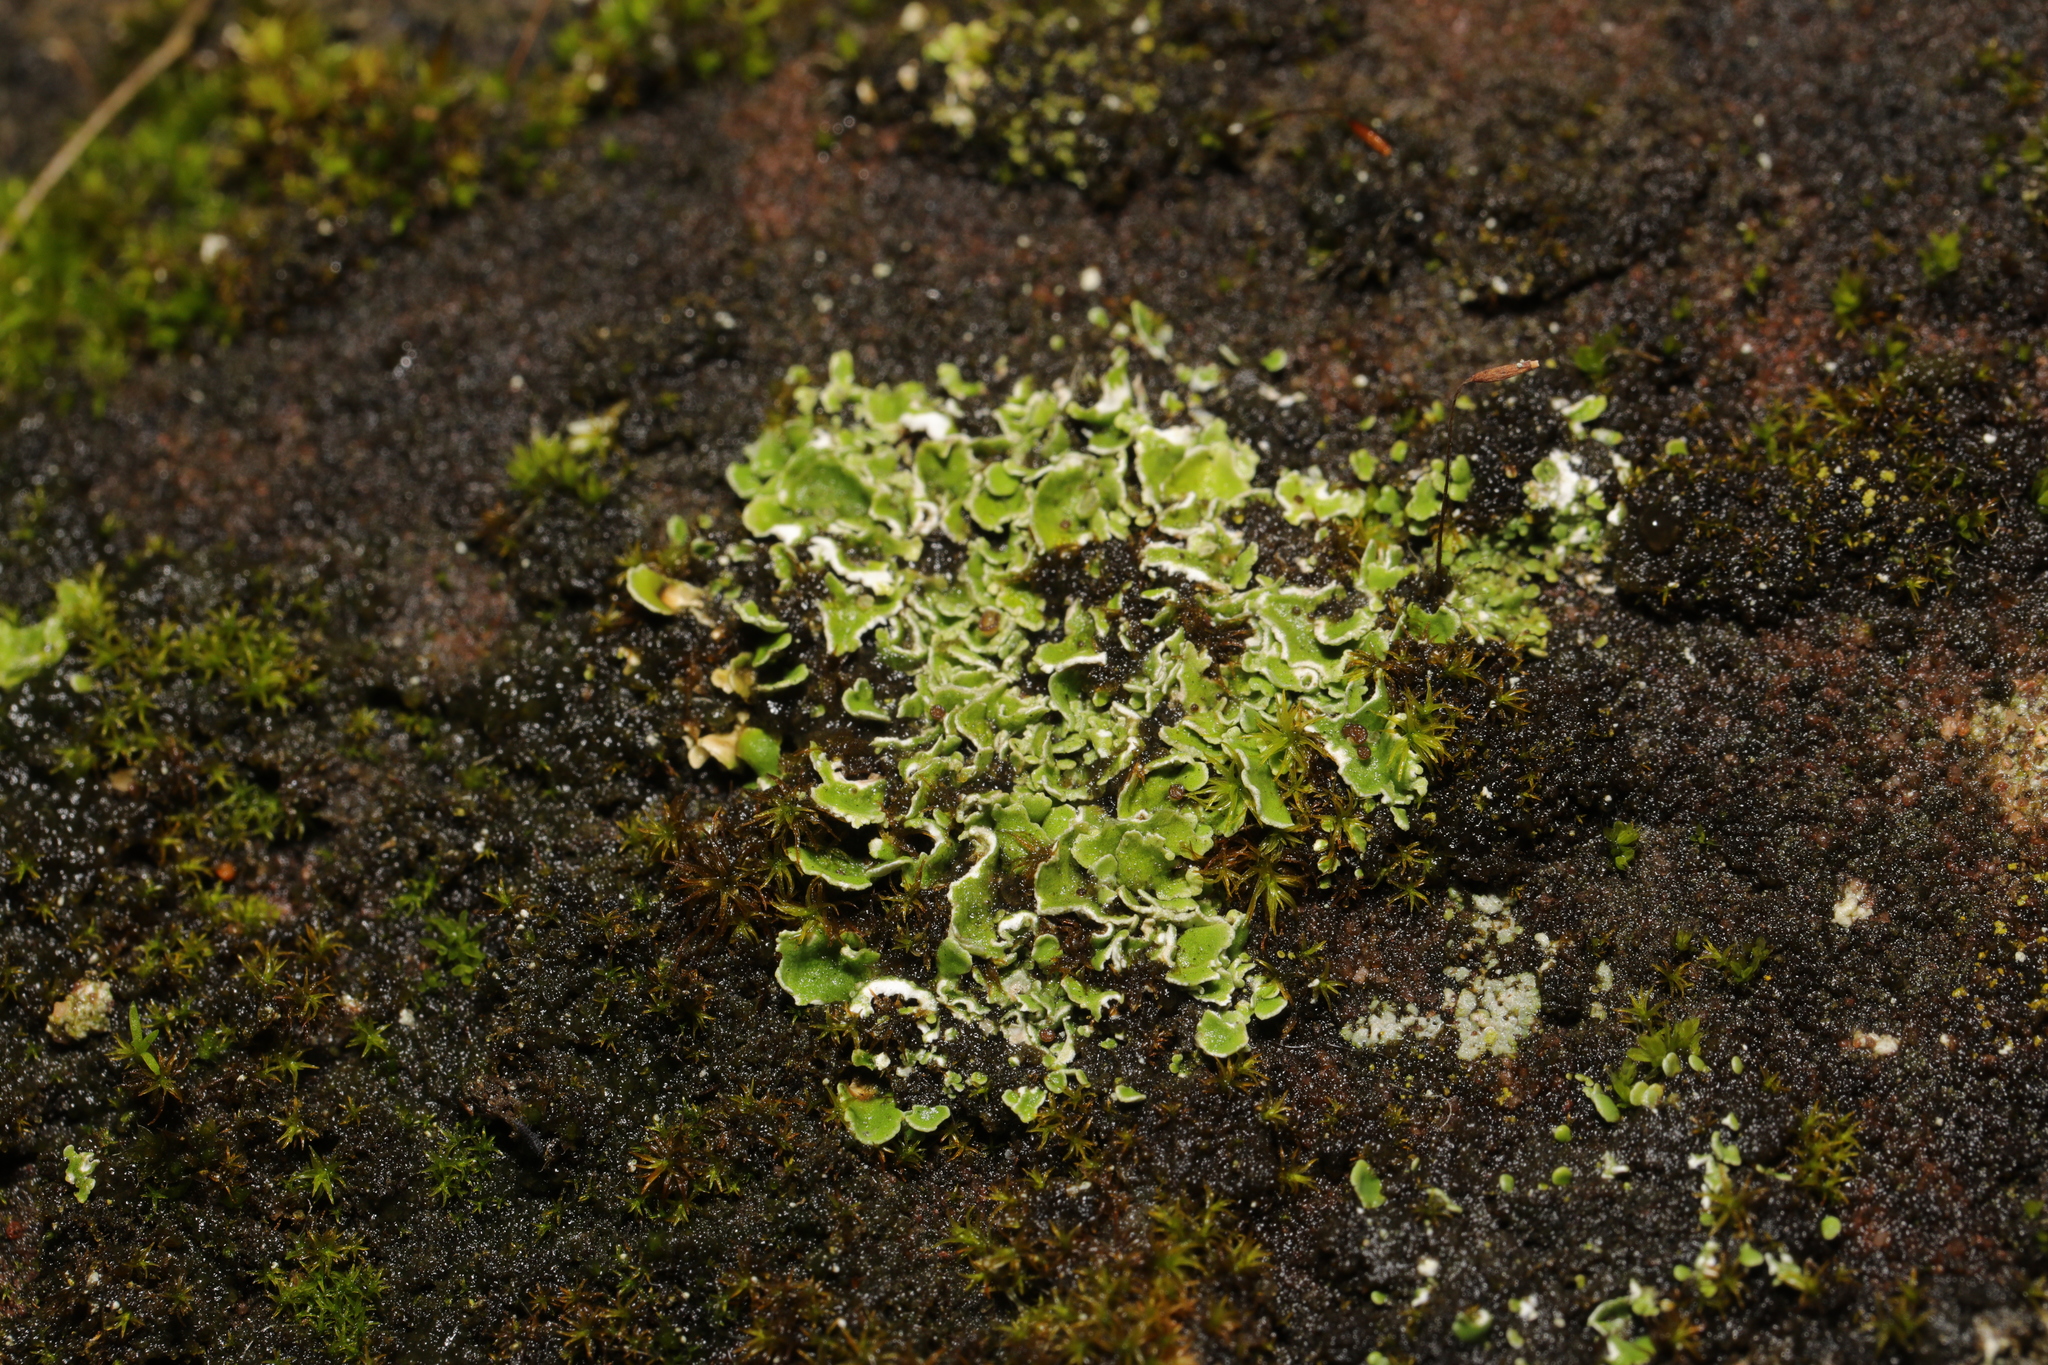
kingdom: Fungi
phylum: Ascomycota
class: Lecanoromycetes
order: Lecanorales
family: Cladoniaceae
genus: Cladonia
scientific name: Cladonia
